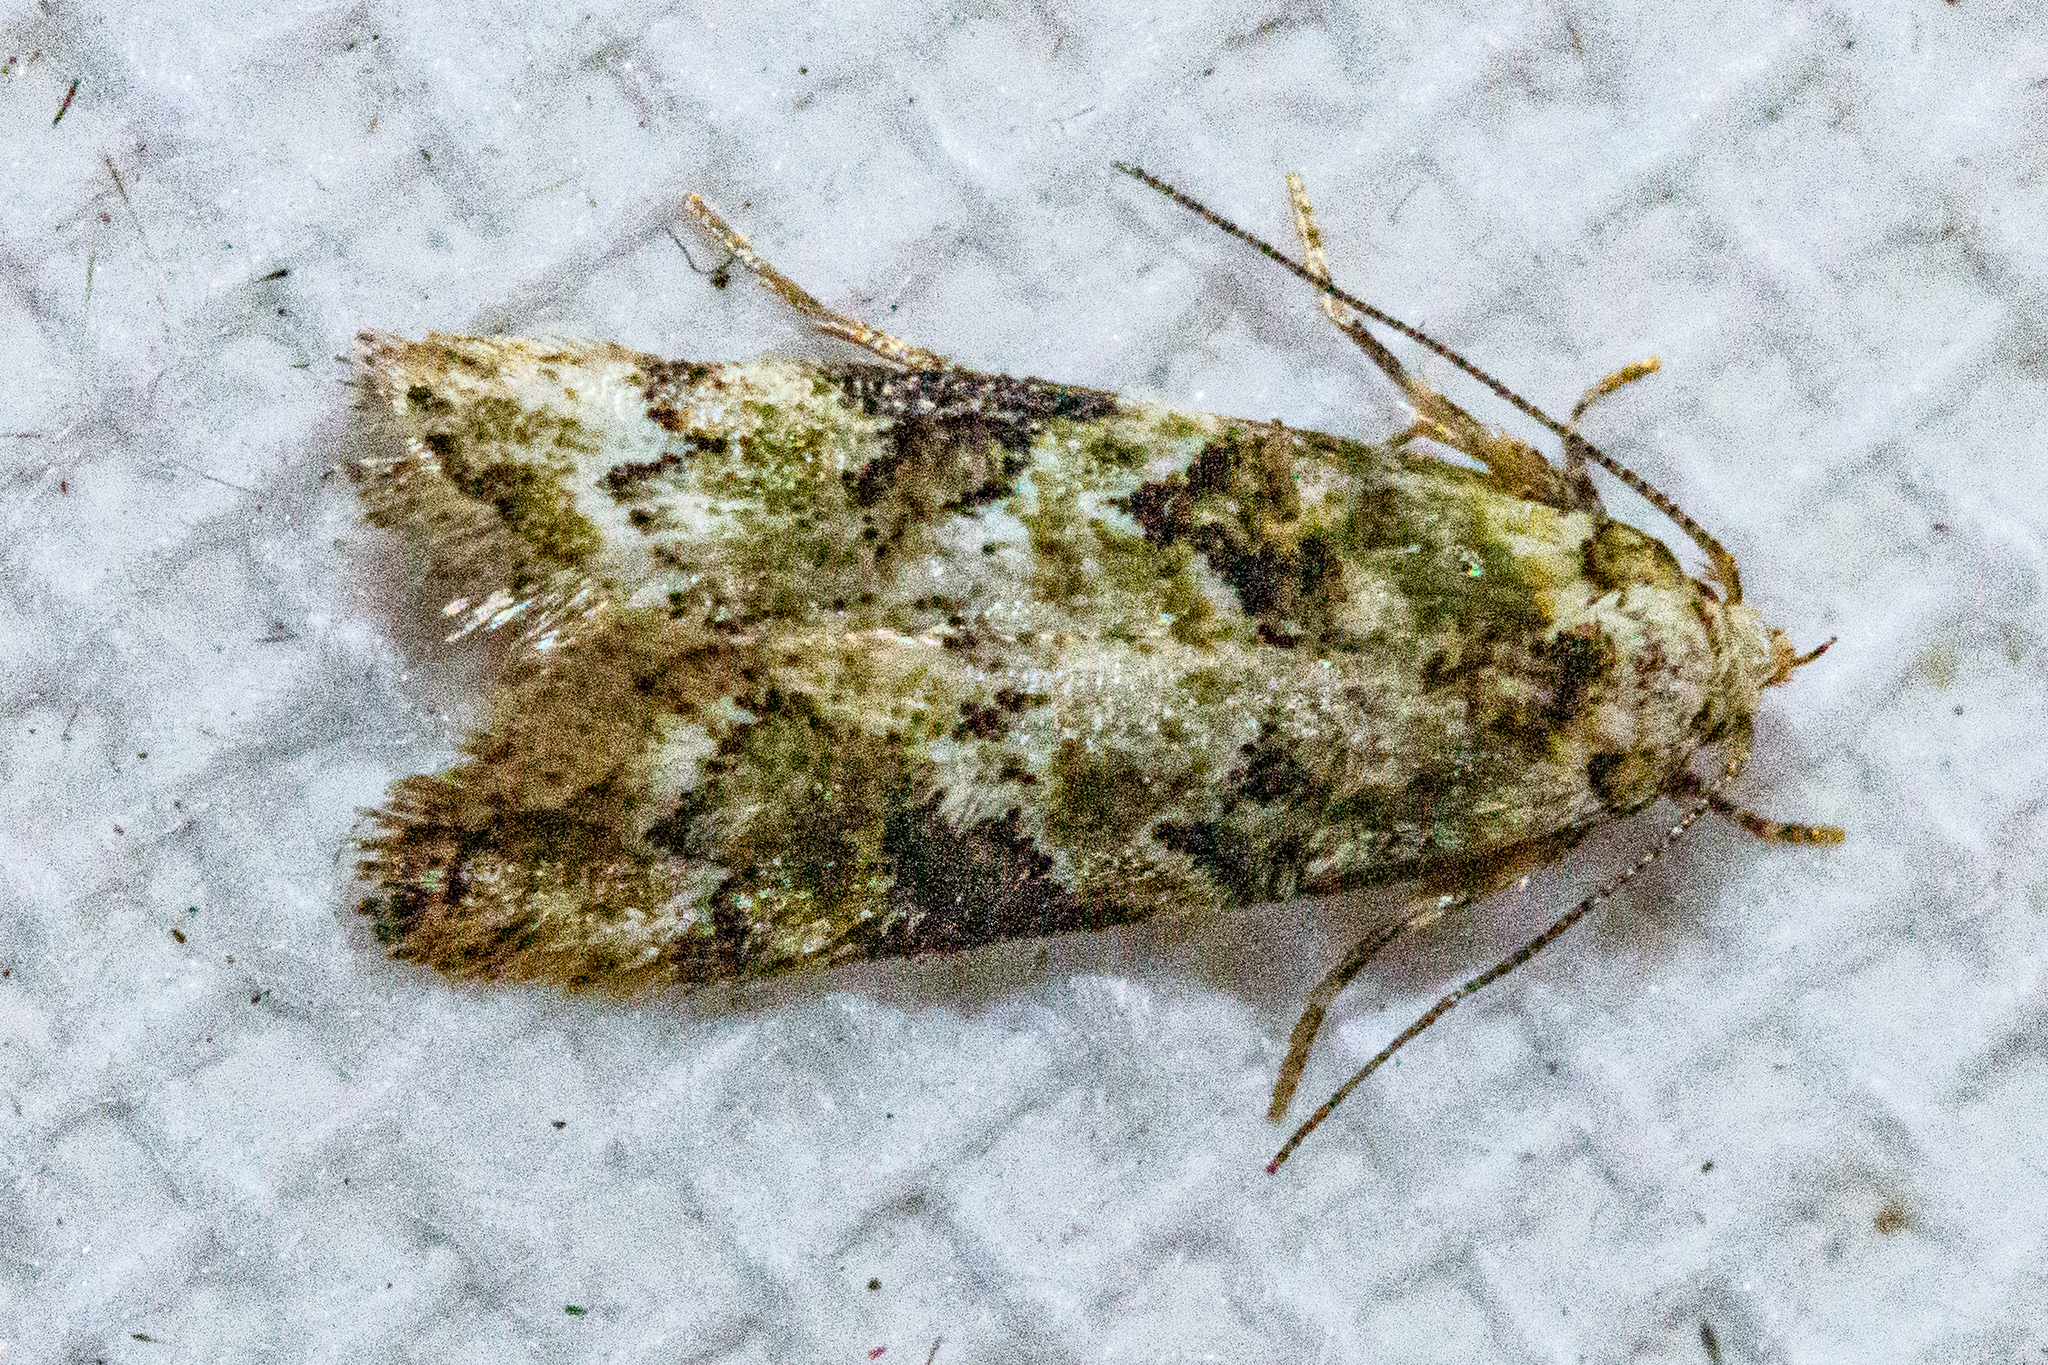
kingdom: Animalia
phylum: Arthropoda
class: Insecta
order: Lepidoptera
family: Oecophoridae
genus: Trachypepla
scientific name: Trachypepla protochlora
